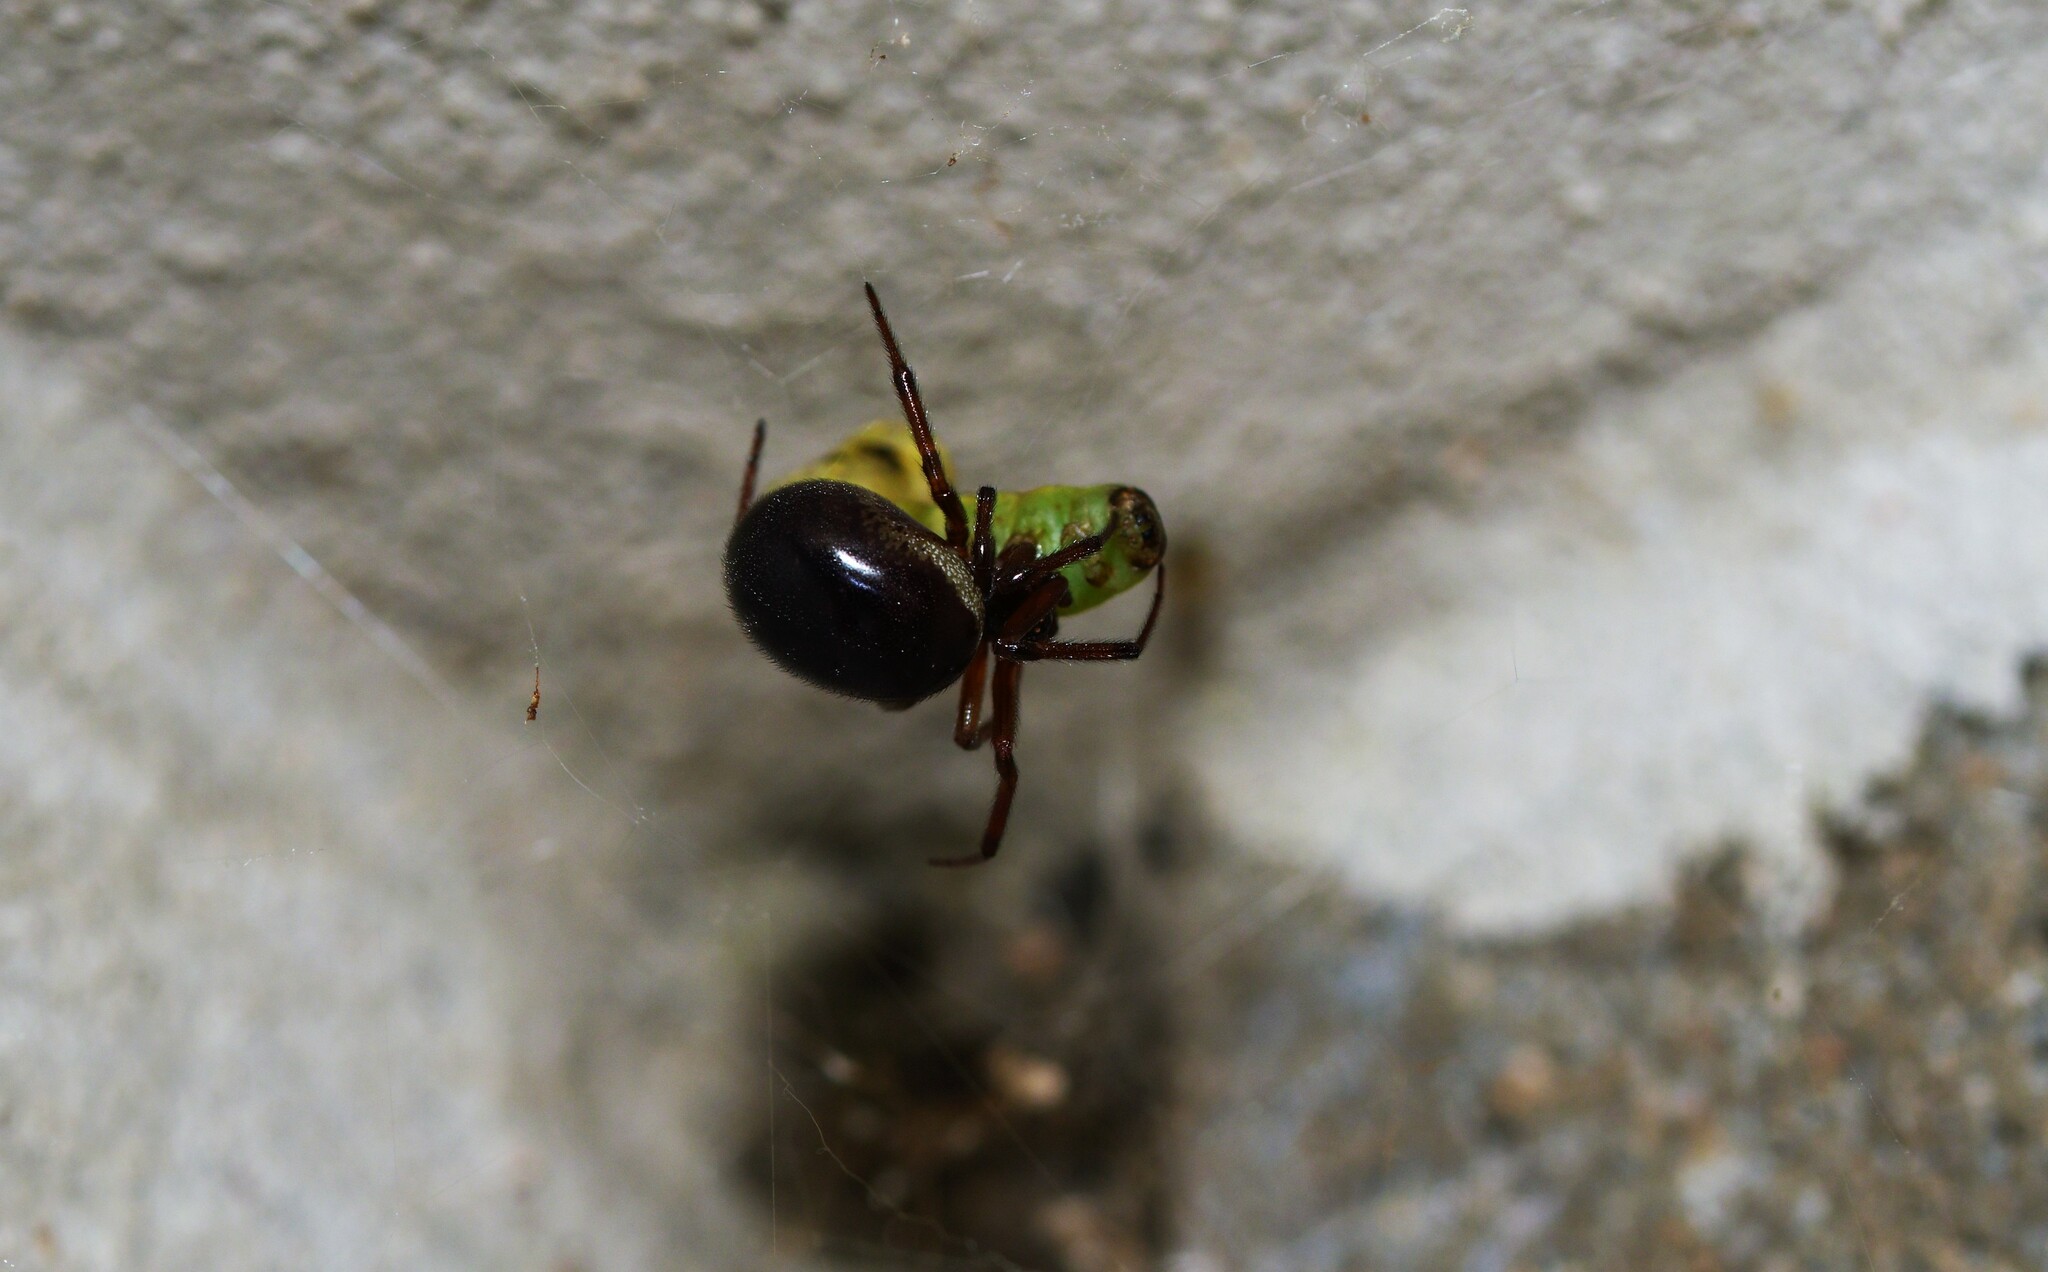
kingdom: Animalia
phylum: Arthropoda
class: Arachnida
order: Araneae
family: Theridiidae
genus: Steatoda
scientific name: Steatoda nobilis
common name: Cobweb weaver
